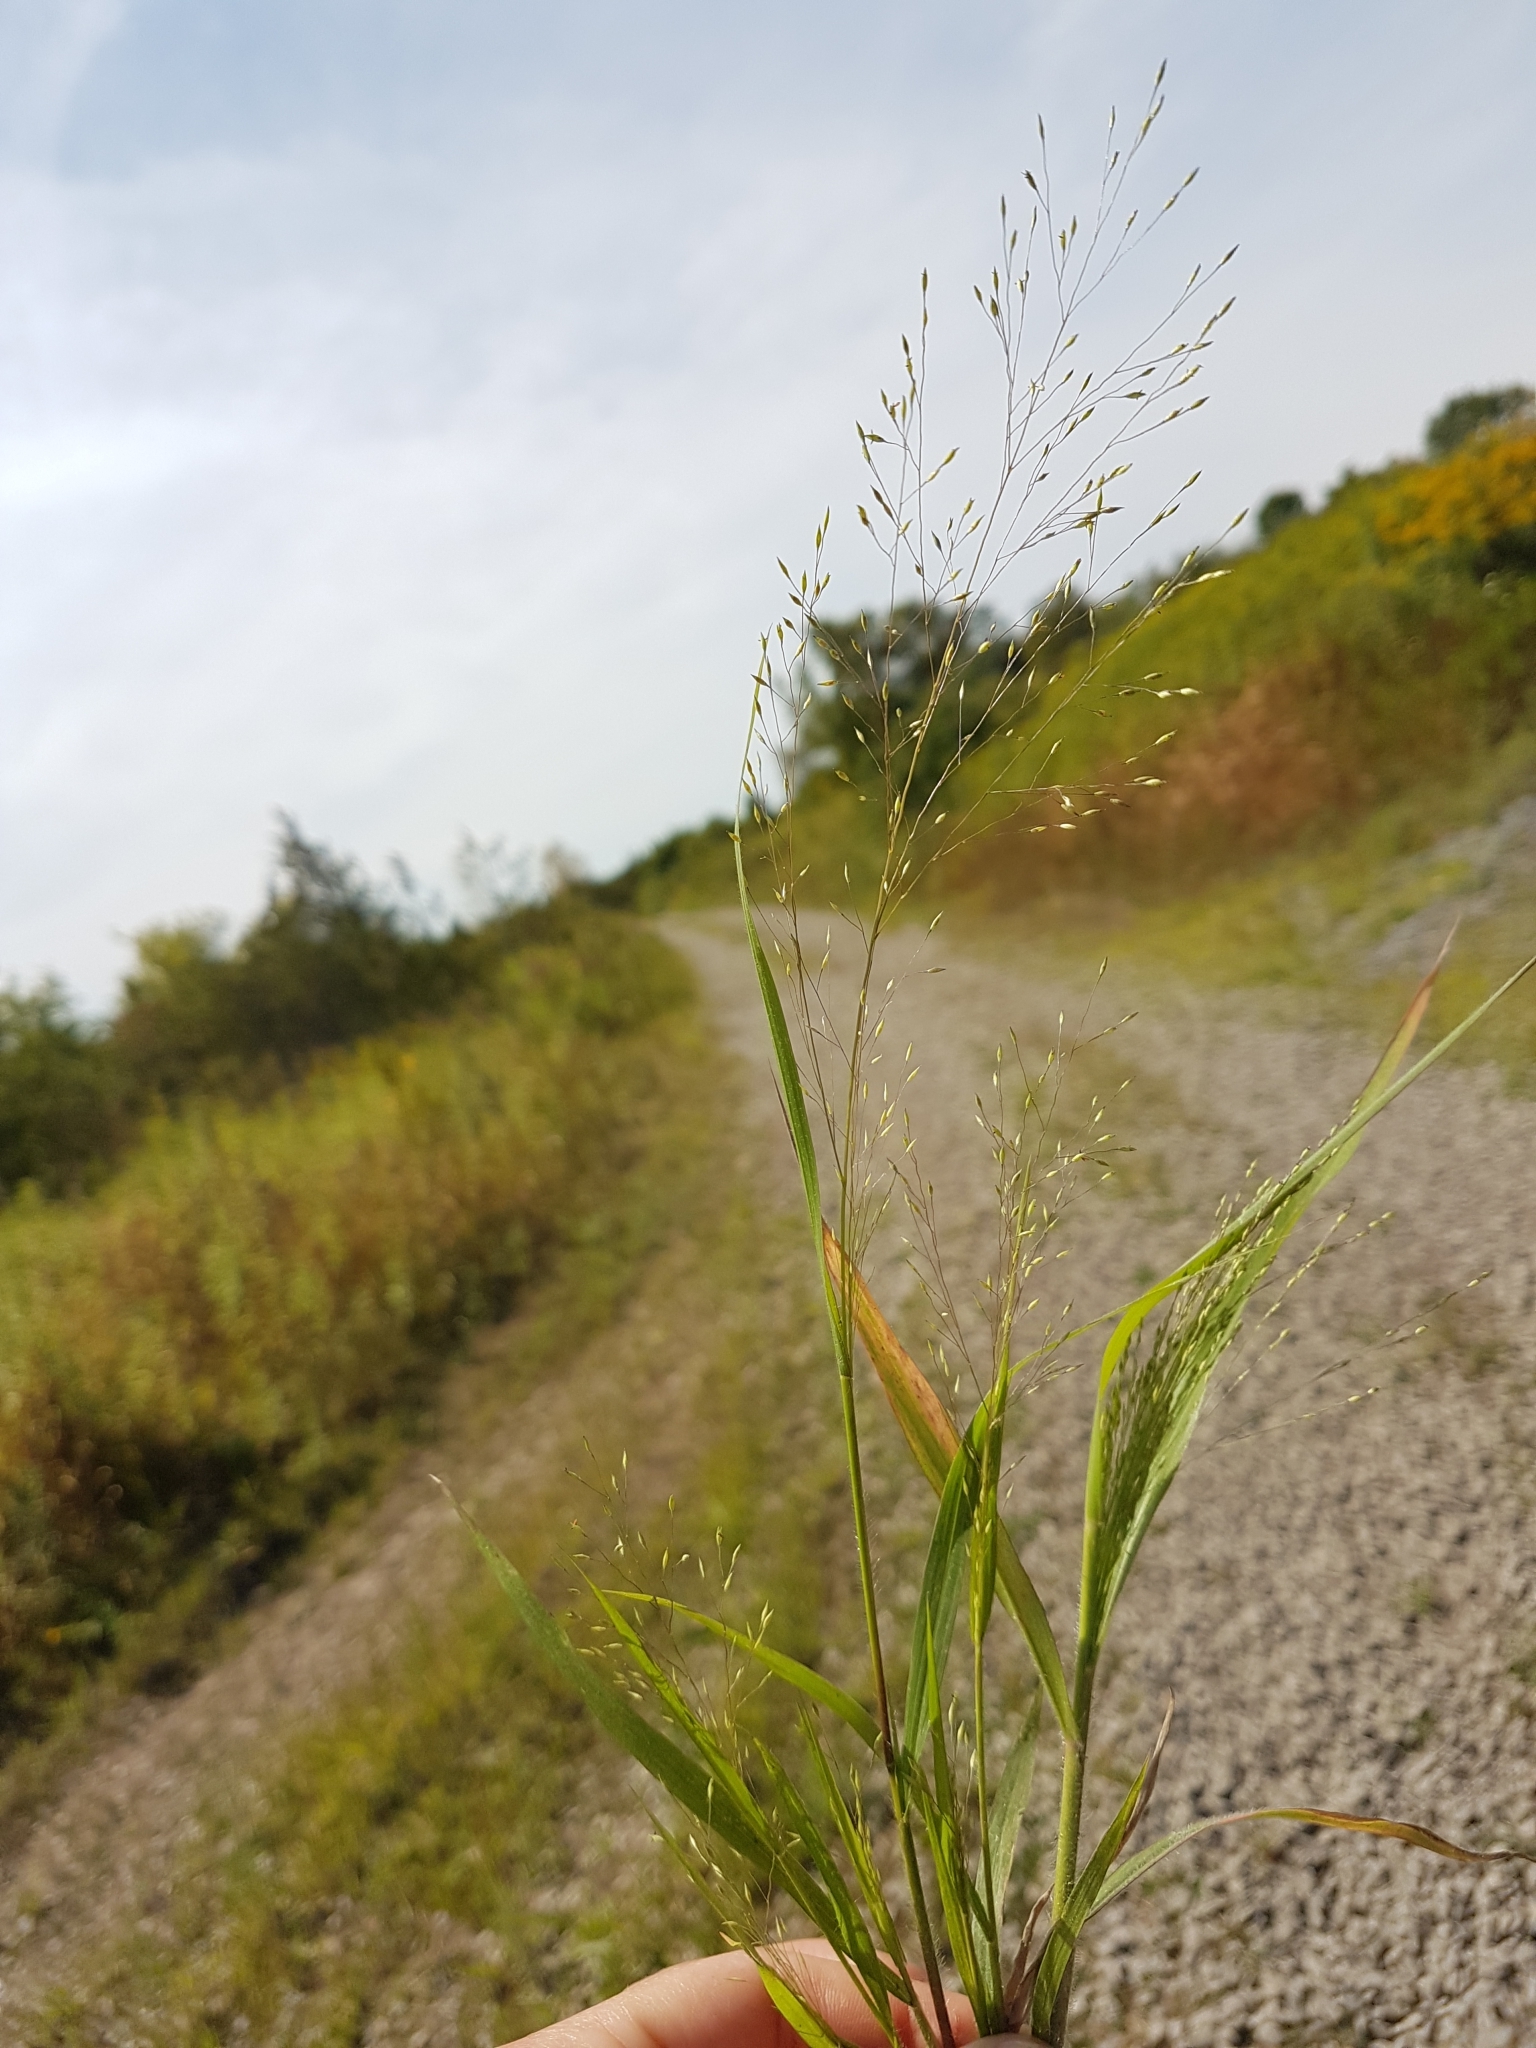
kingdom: Plantae
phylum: Tracheophyta
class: Liliopsida
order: Poales
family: Poaceae
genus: Panicum
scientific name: Panicum flexile
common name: Wiry panicgrass
